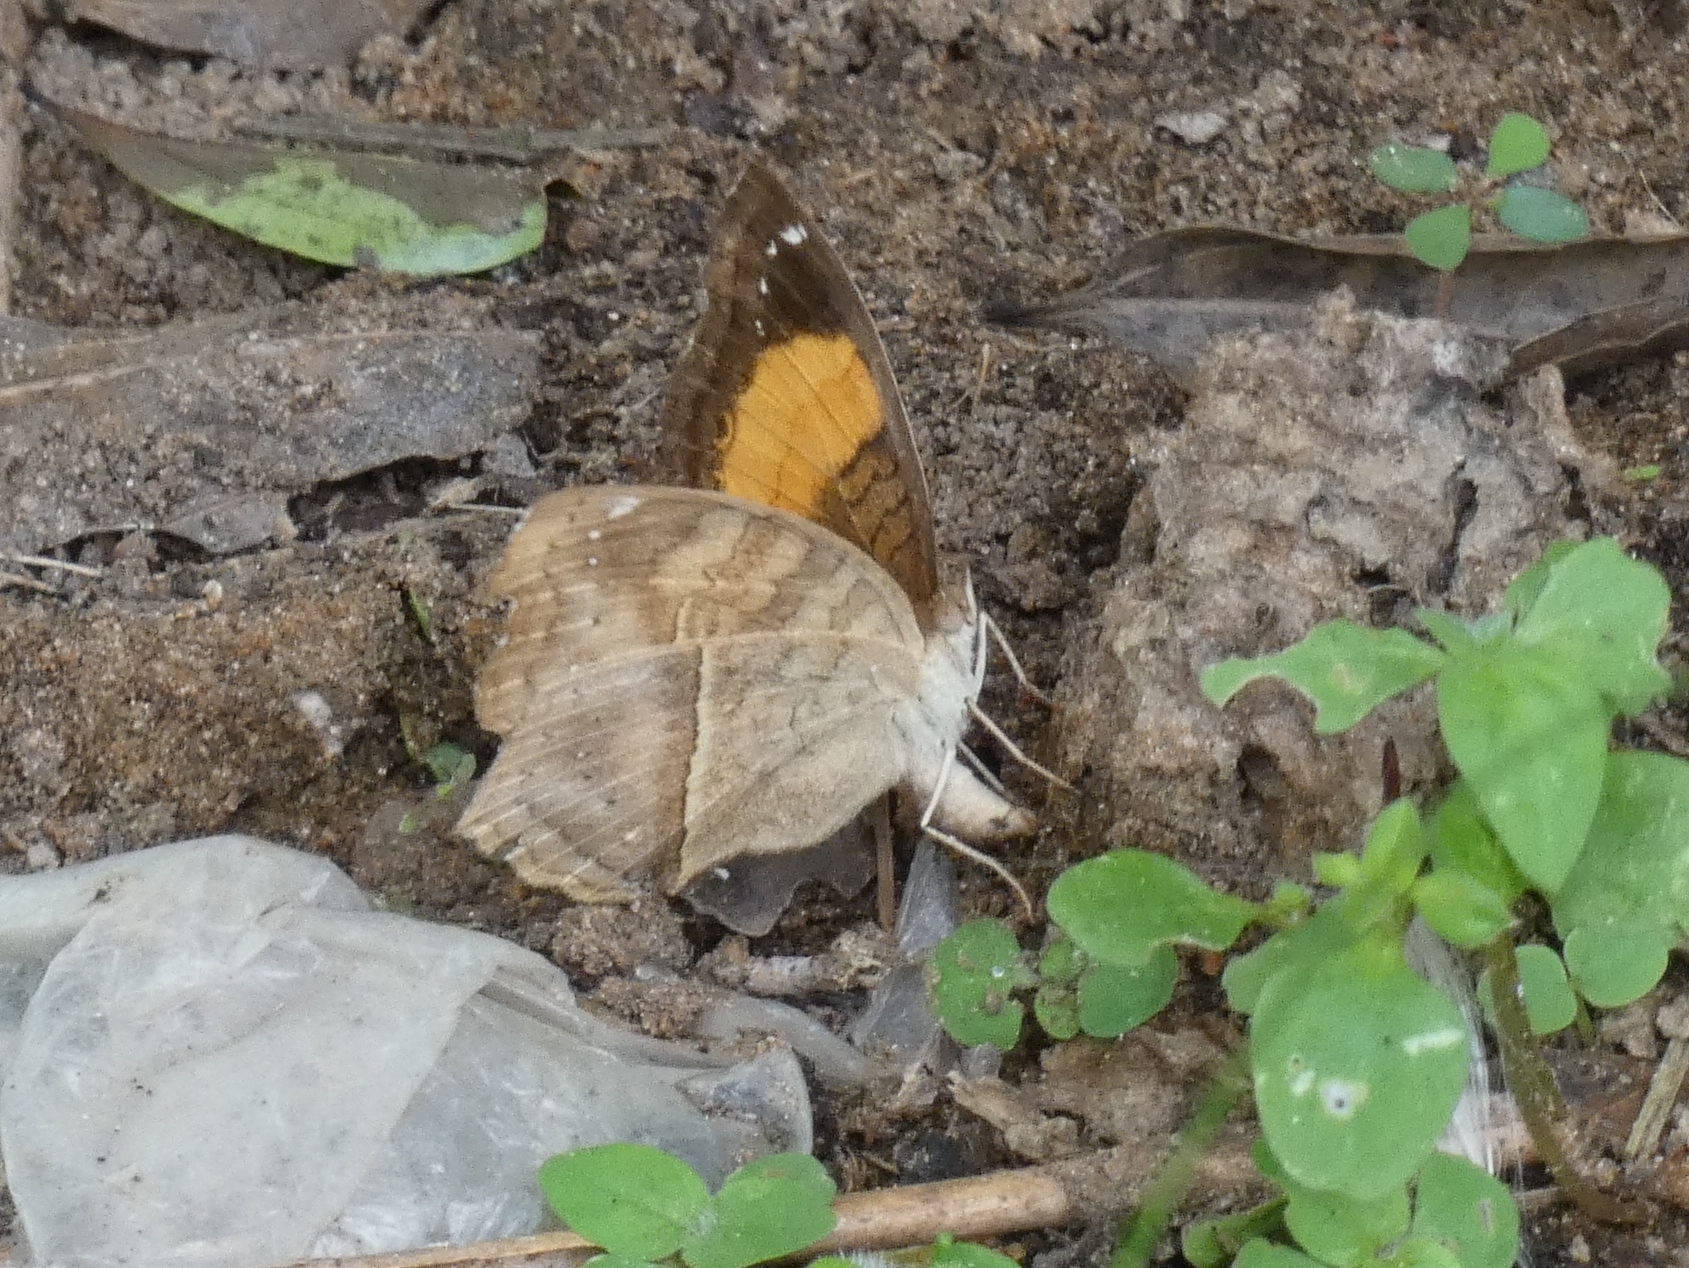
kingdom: Animalia
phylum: Arthropoda
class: Insecta
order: Lepidoptera
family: Nymphalidae
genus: Junonia
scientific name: Junonia terea
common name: Soldier pansy
